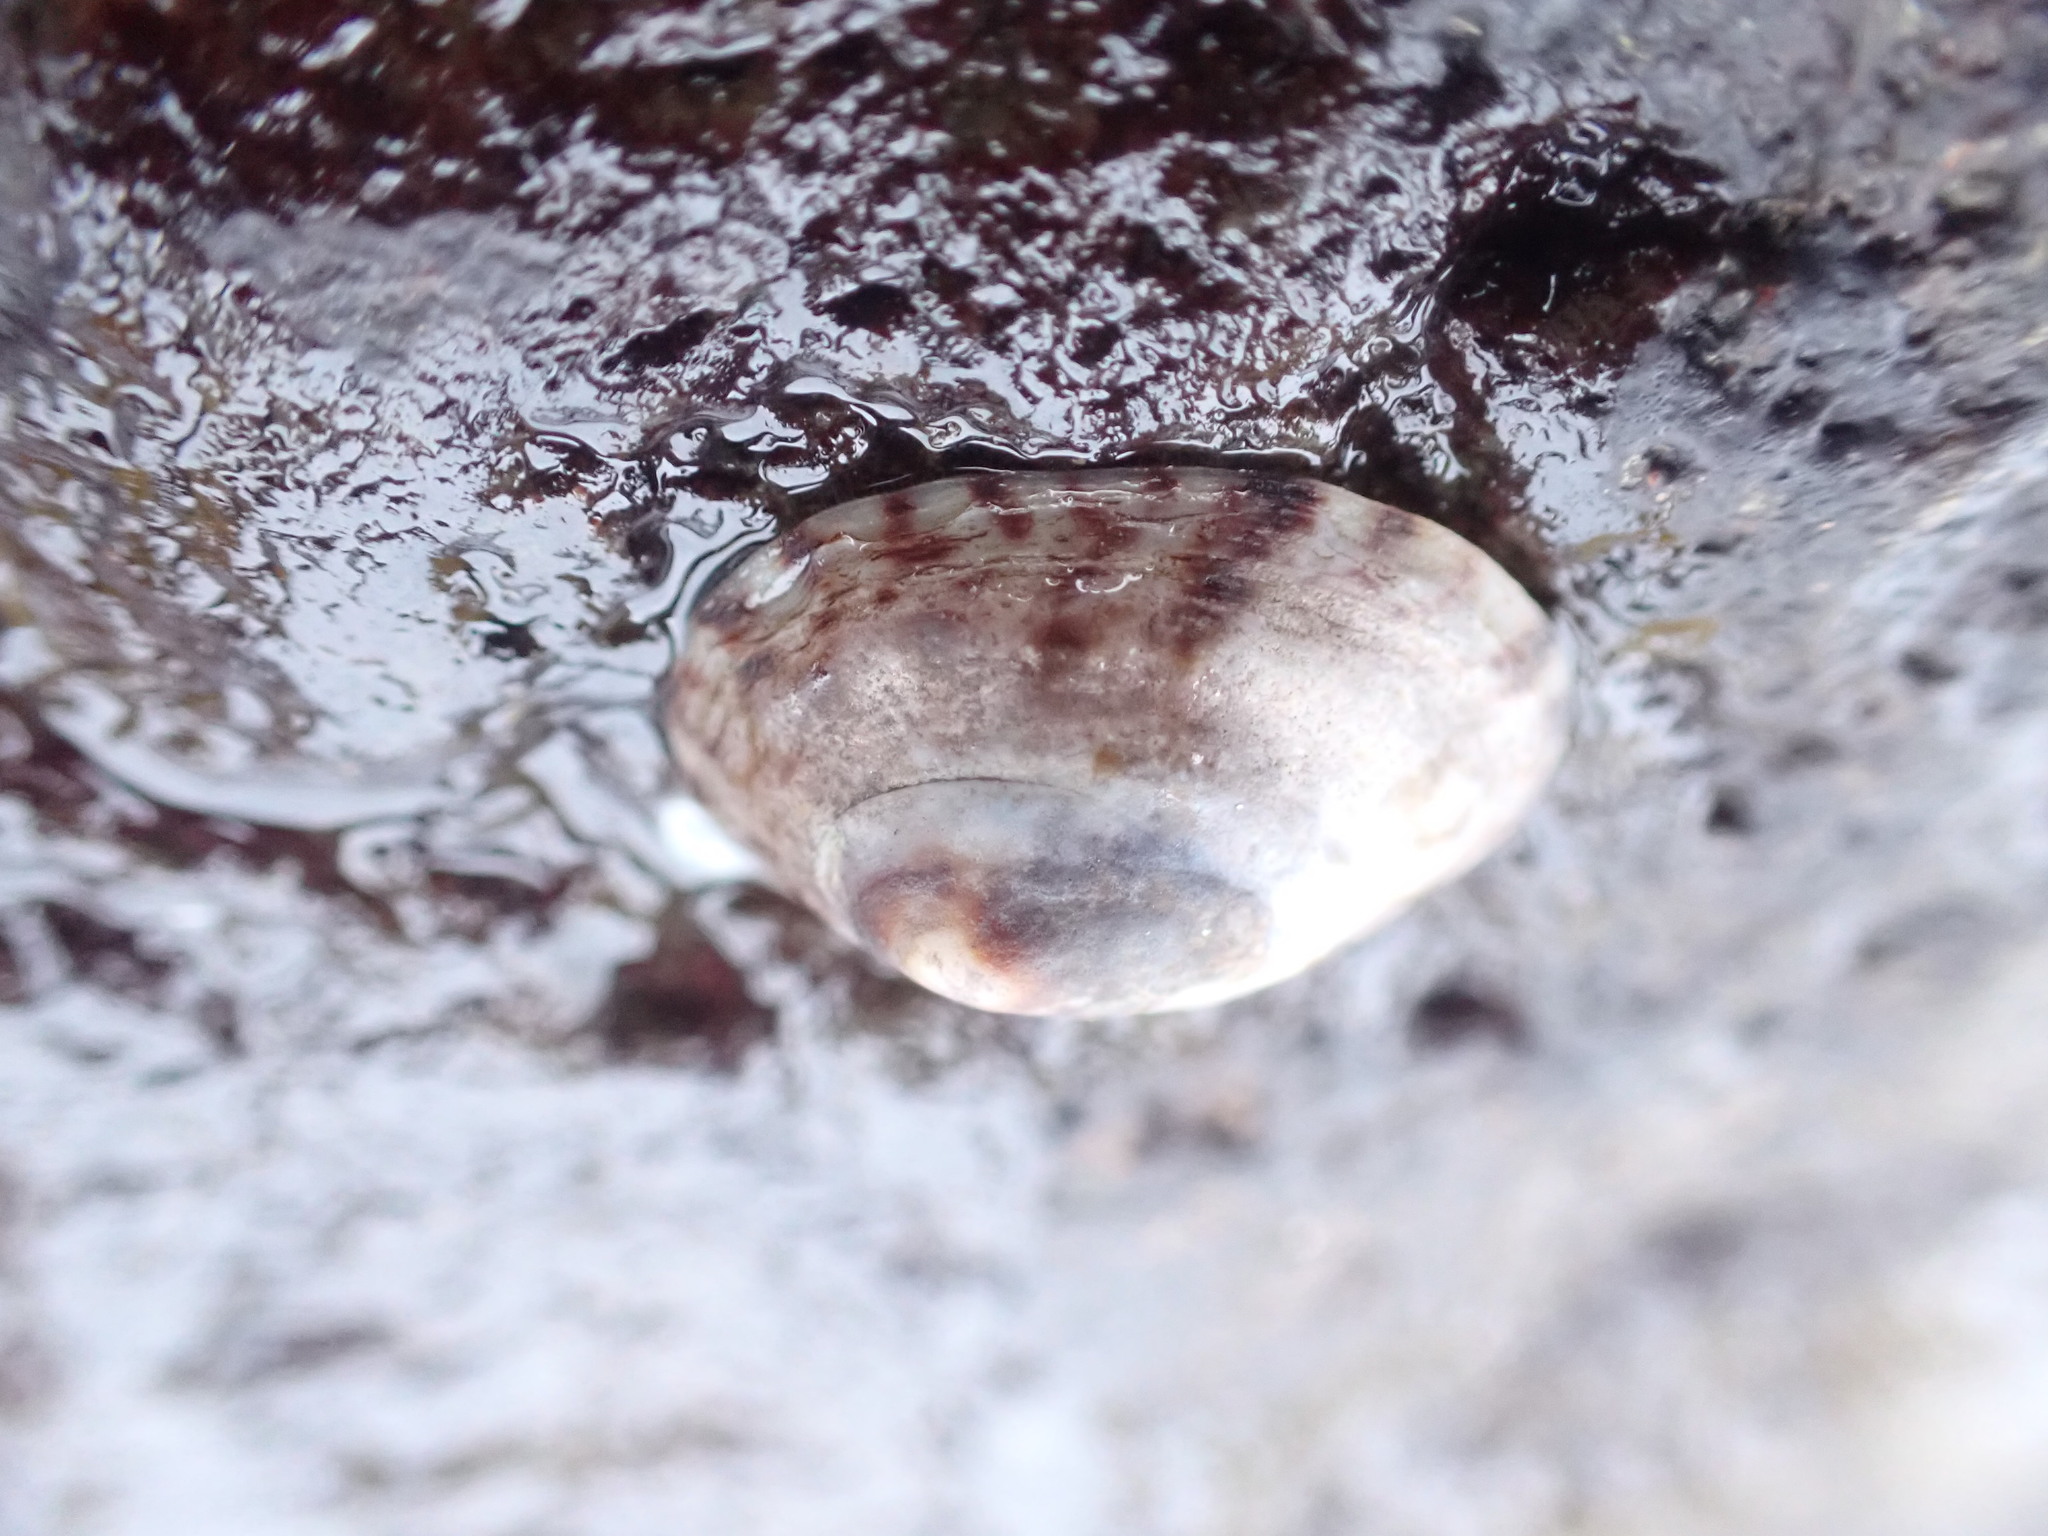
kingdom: Animalia
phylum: Mollusca
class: Gastropoda
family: Lottiidae
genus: Testudinalia
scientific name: Testudinalia testudinalis
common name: Common tortoiseshell limpet
